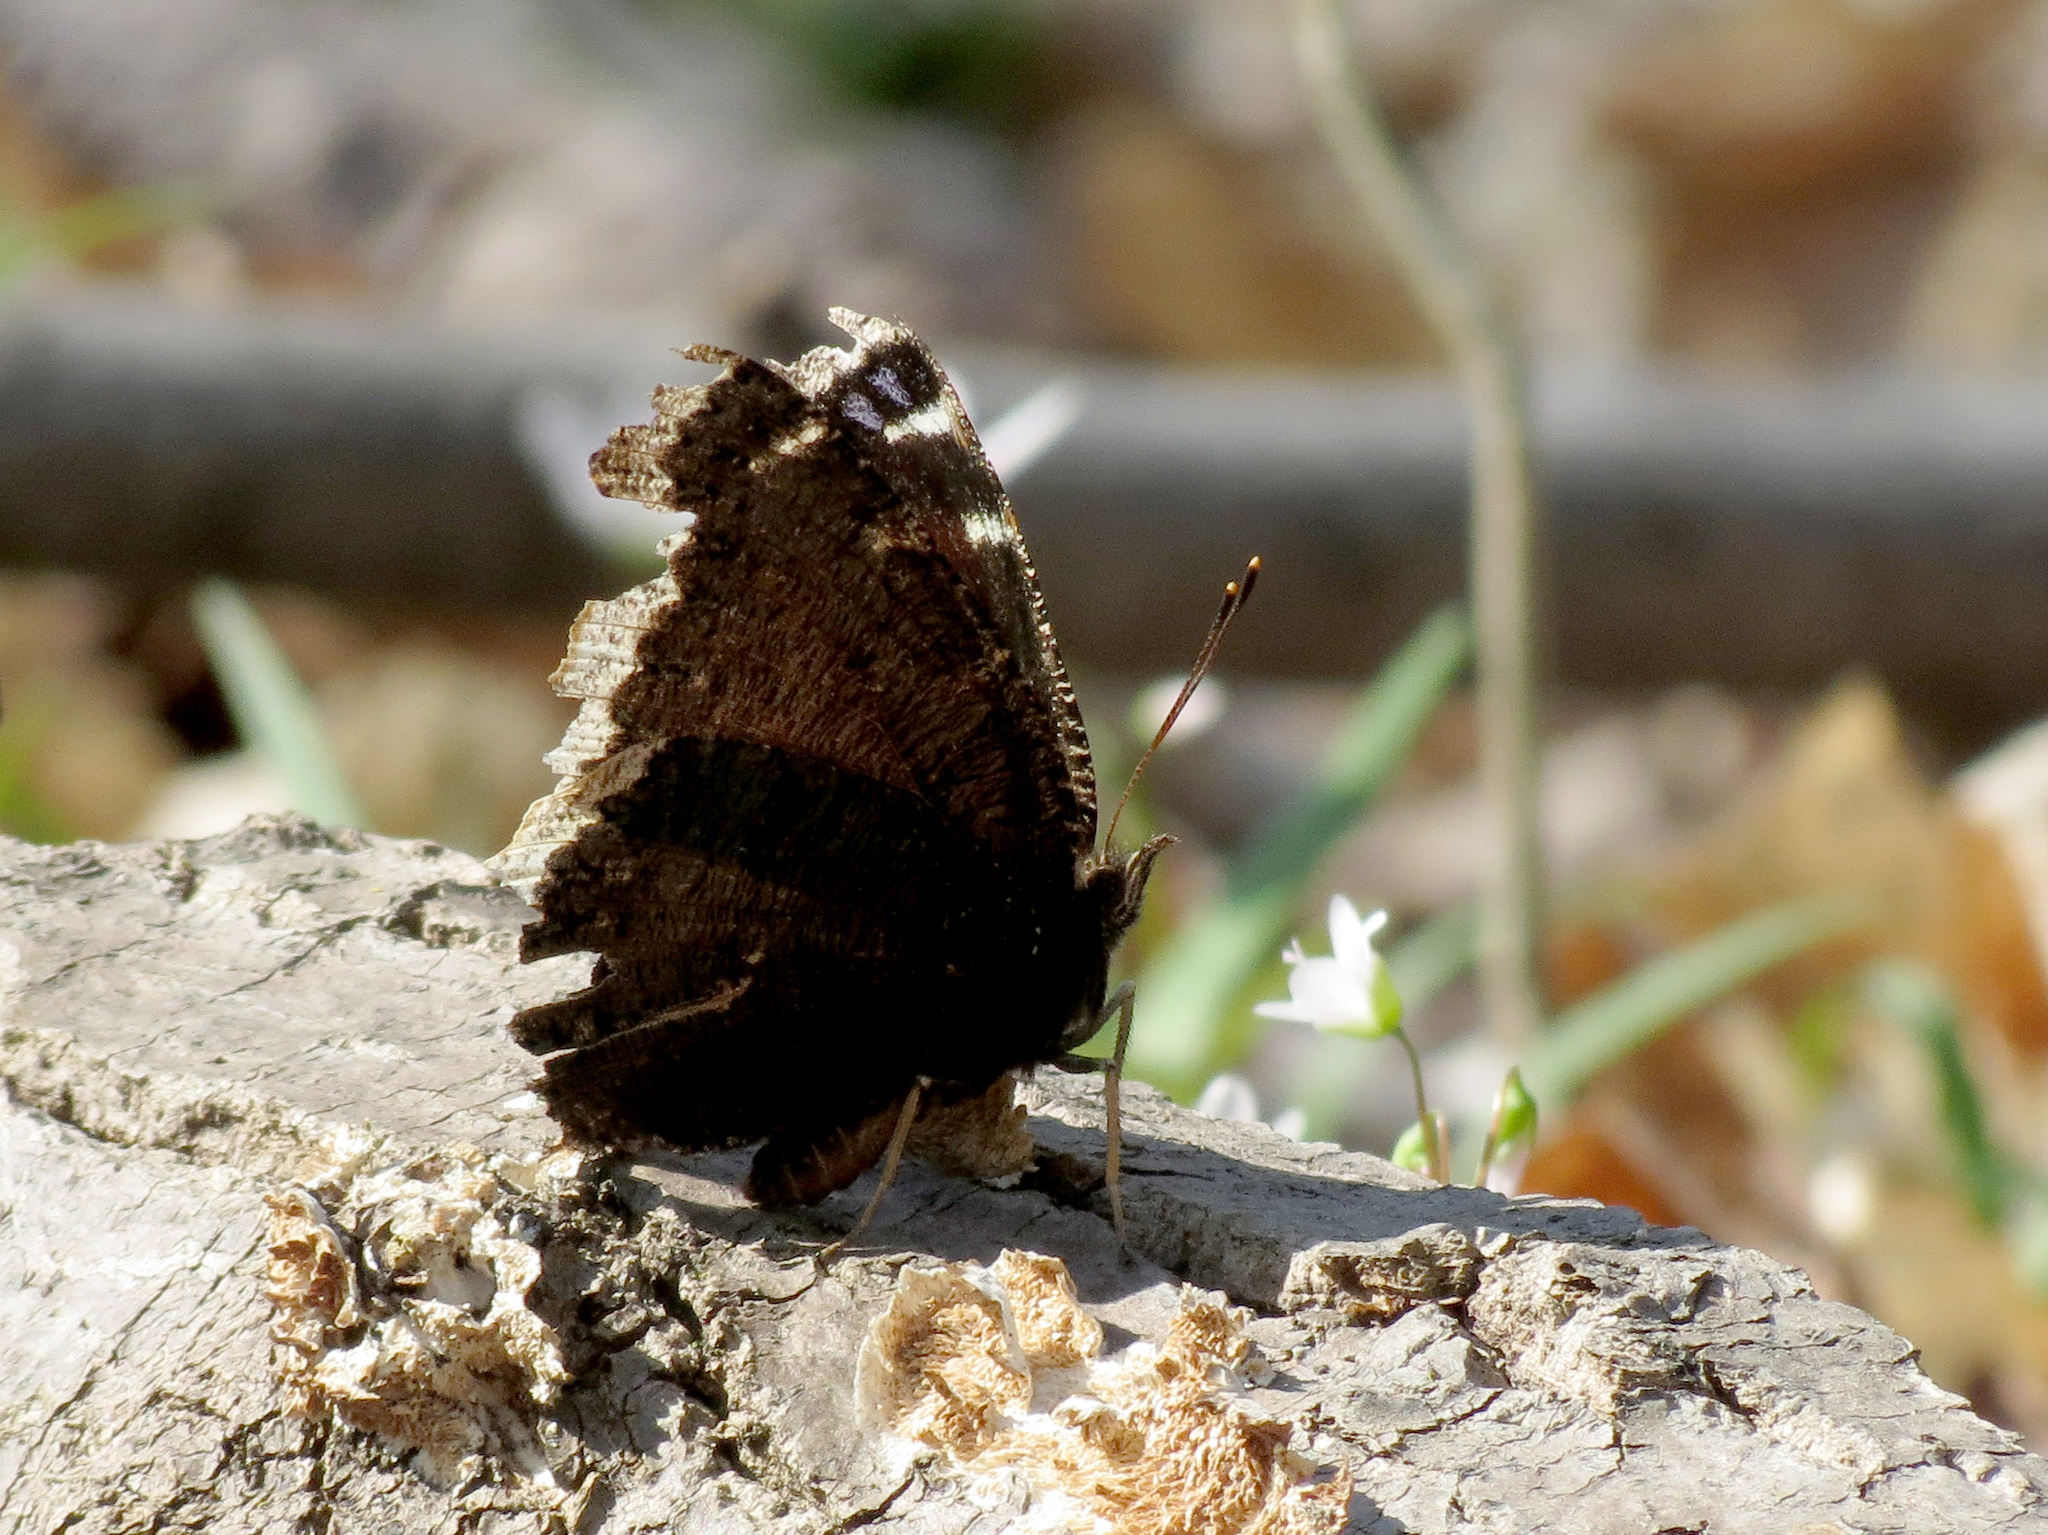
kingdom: Animalia
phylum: Arthropoda
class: Insecta
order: Lepidoptera
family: Nymphalidae
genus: Nymphalis
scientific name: Nymphalis antiopa
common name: Camberwell beauty
